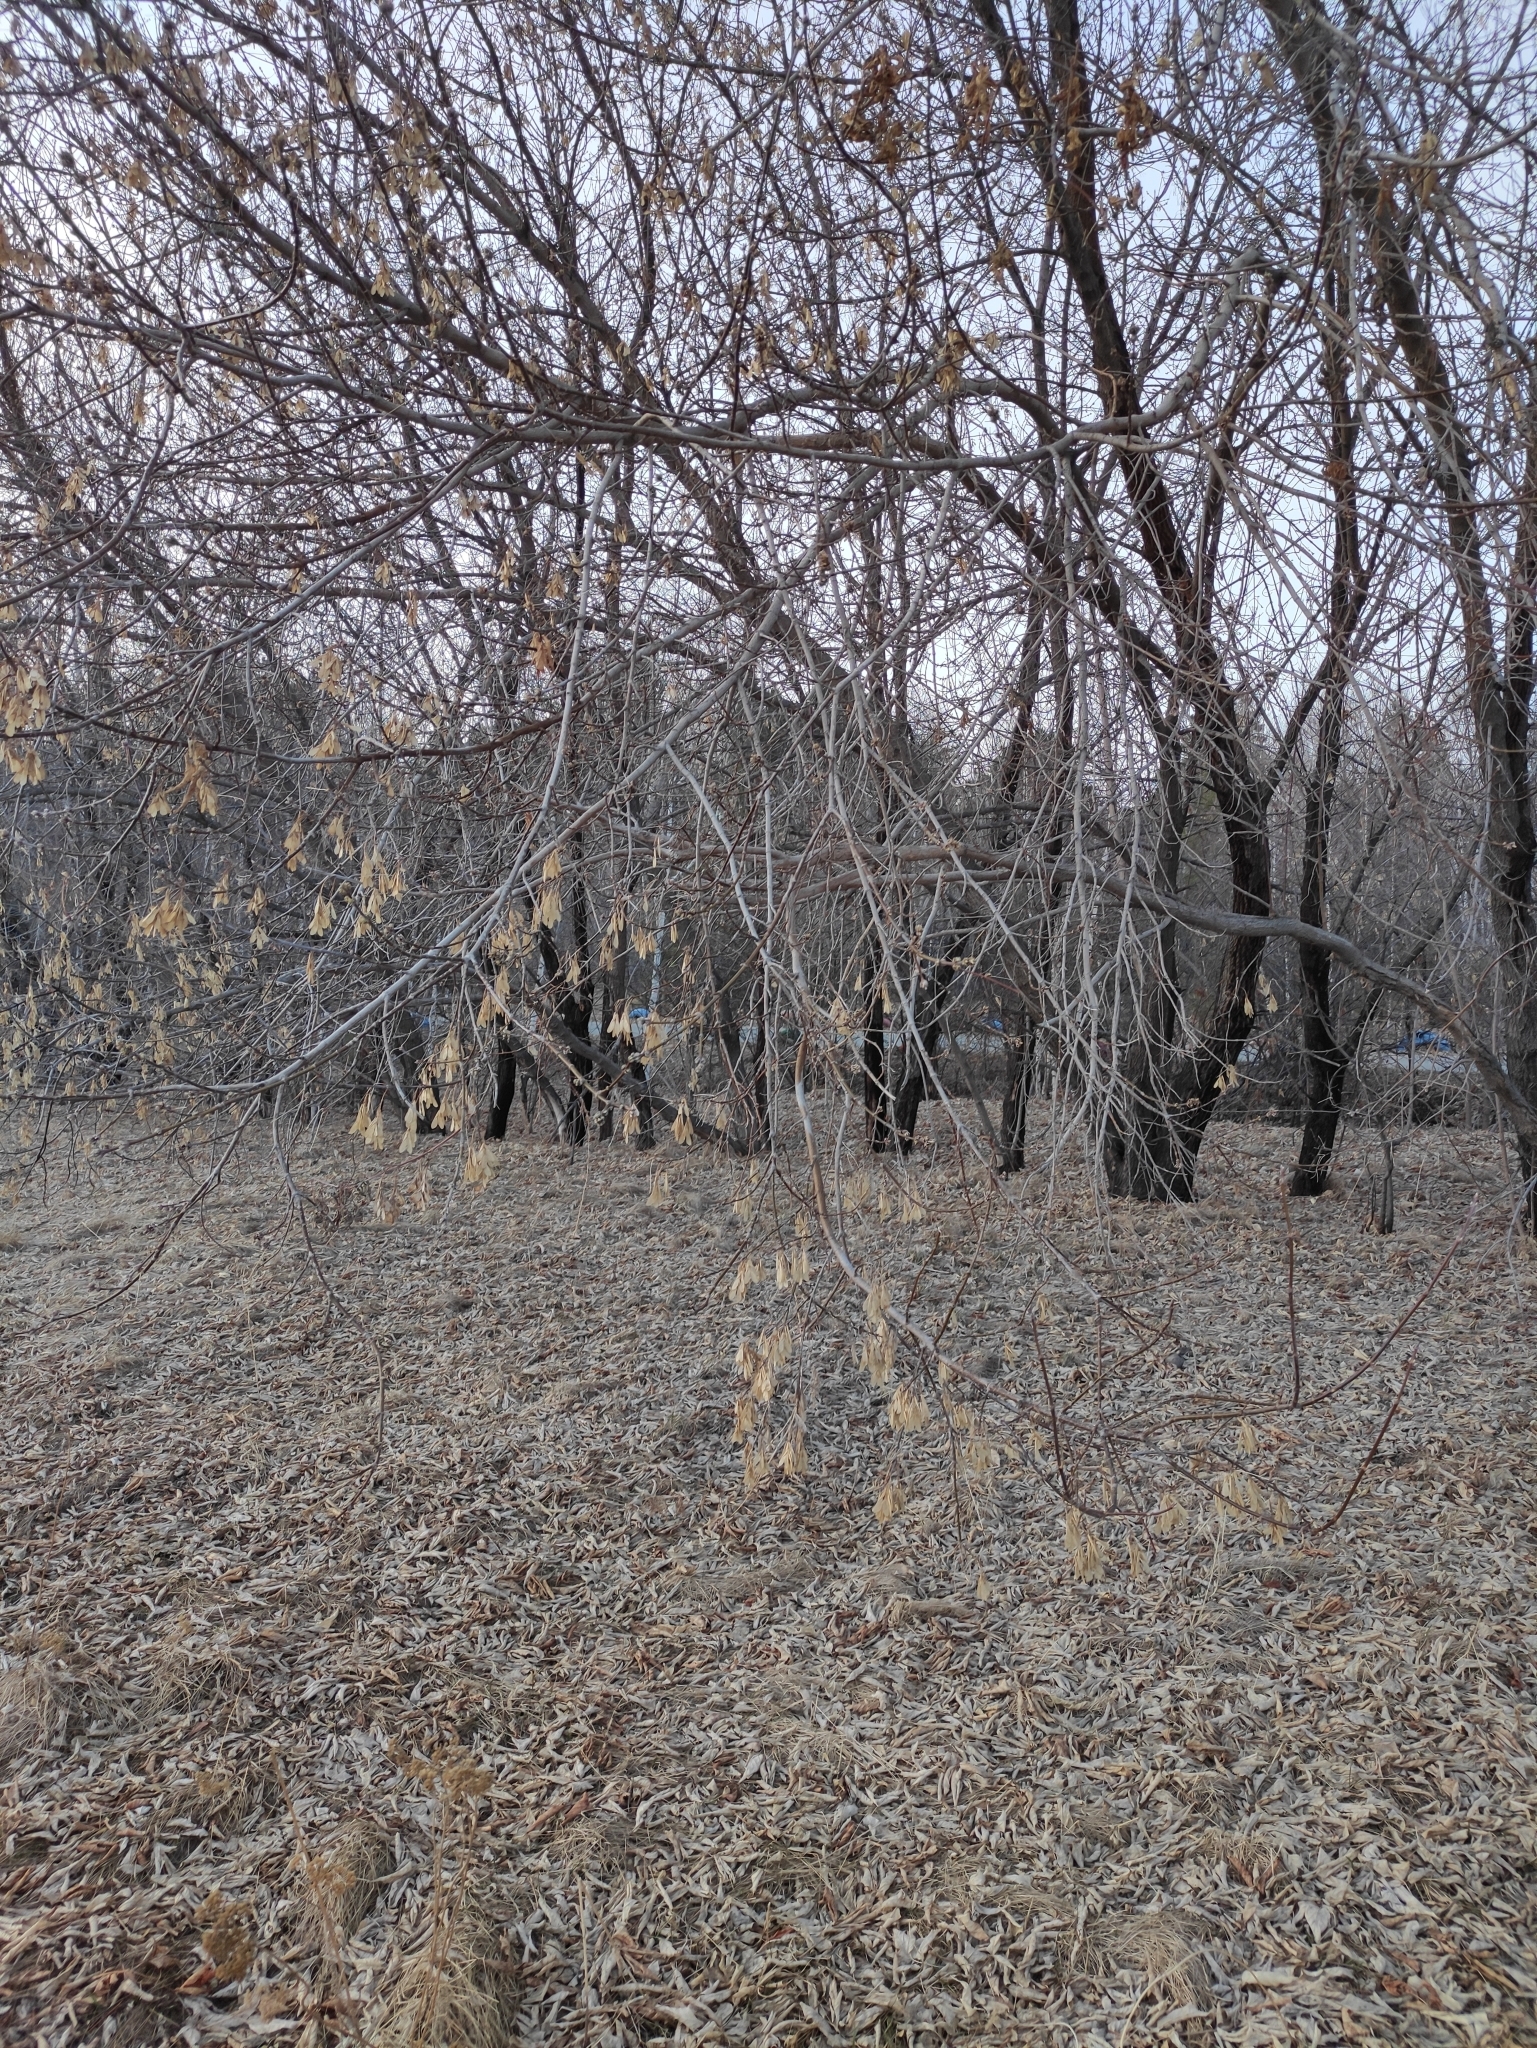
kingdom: Plantae
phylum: Tracheophyta
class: Magnoliopsida
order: Sapindales
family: Sapindaceae
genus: Acer
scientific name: Acer negundo
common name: Ashleaf maple
